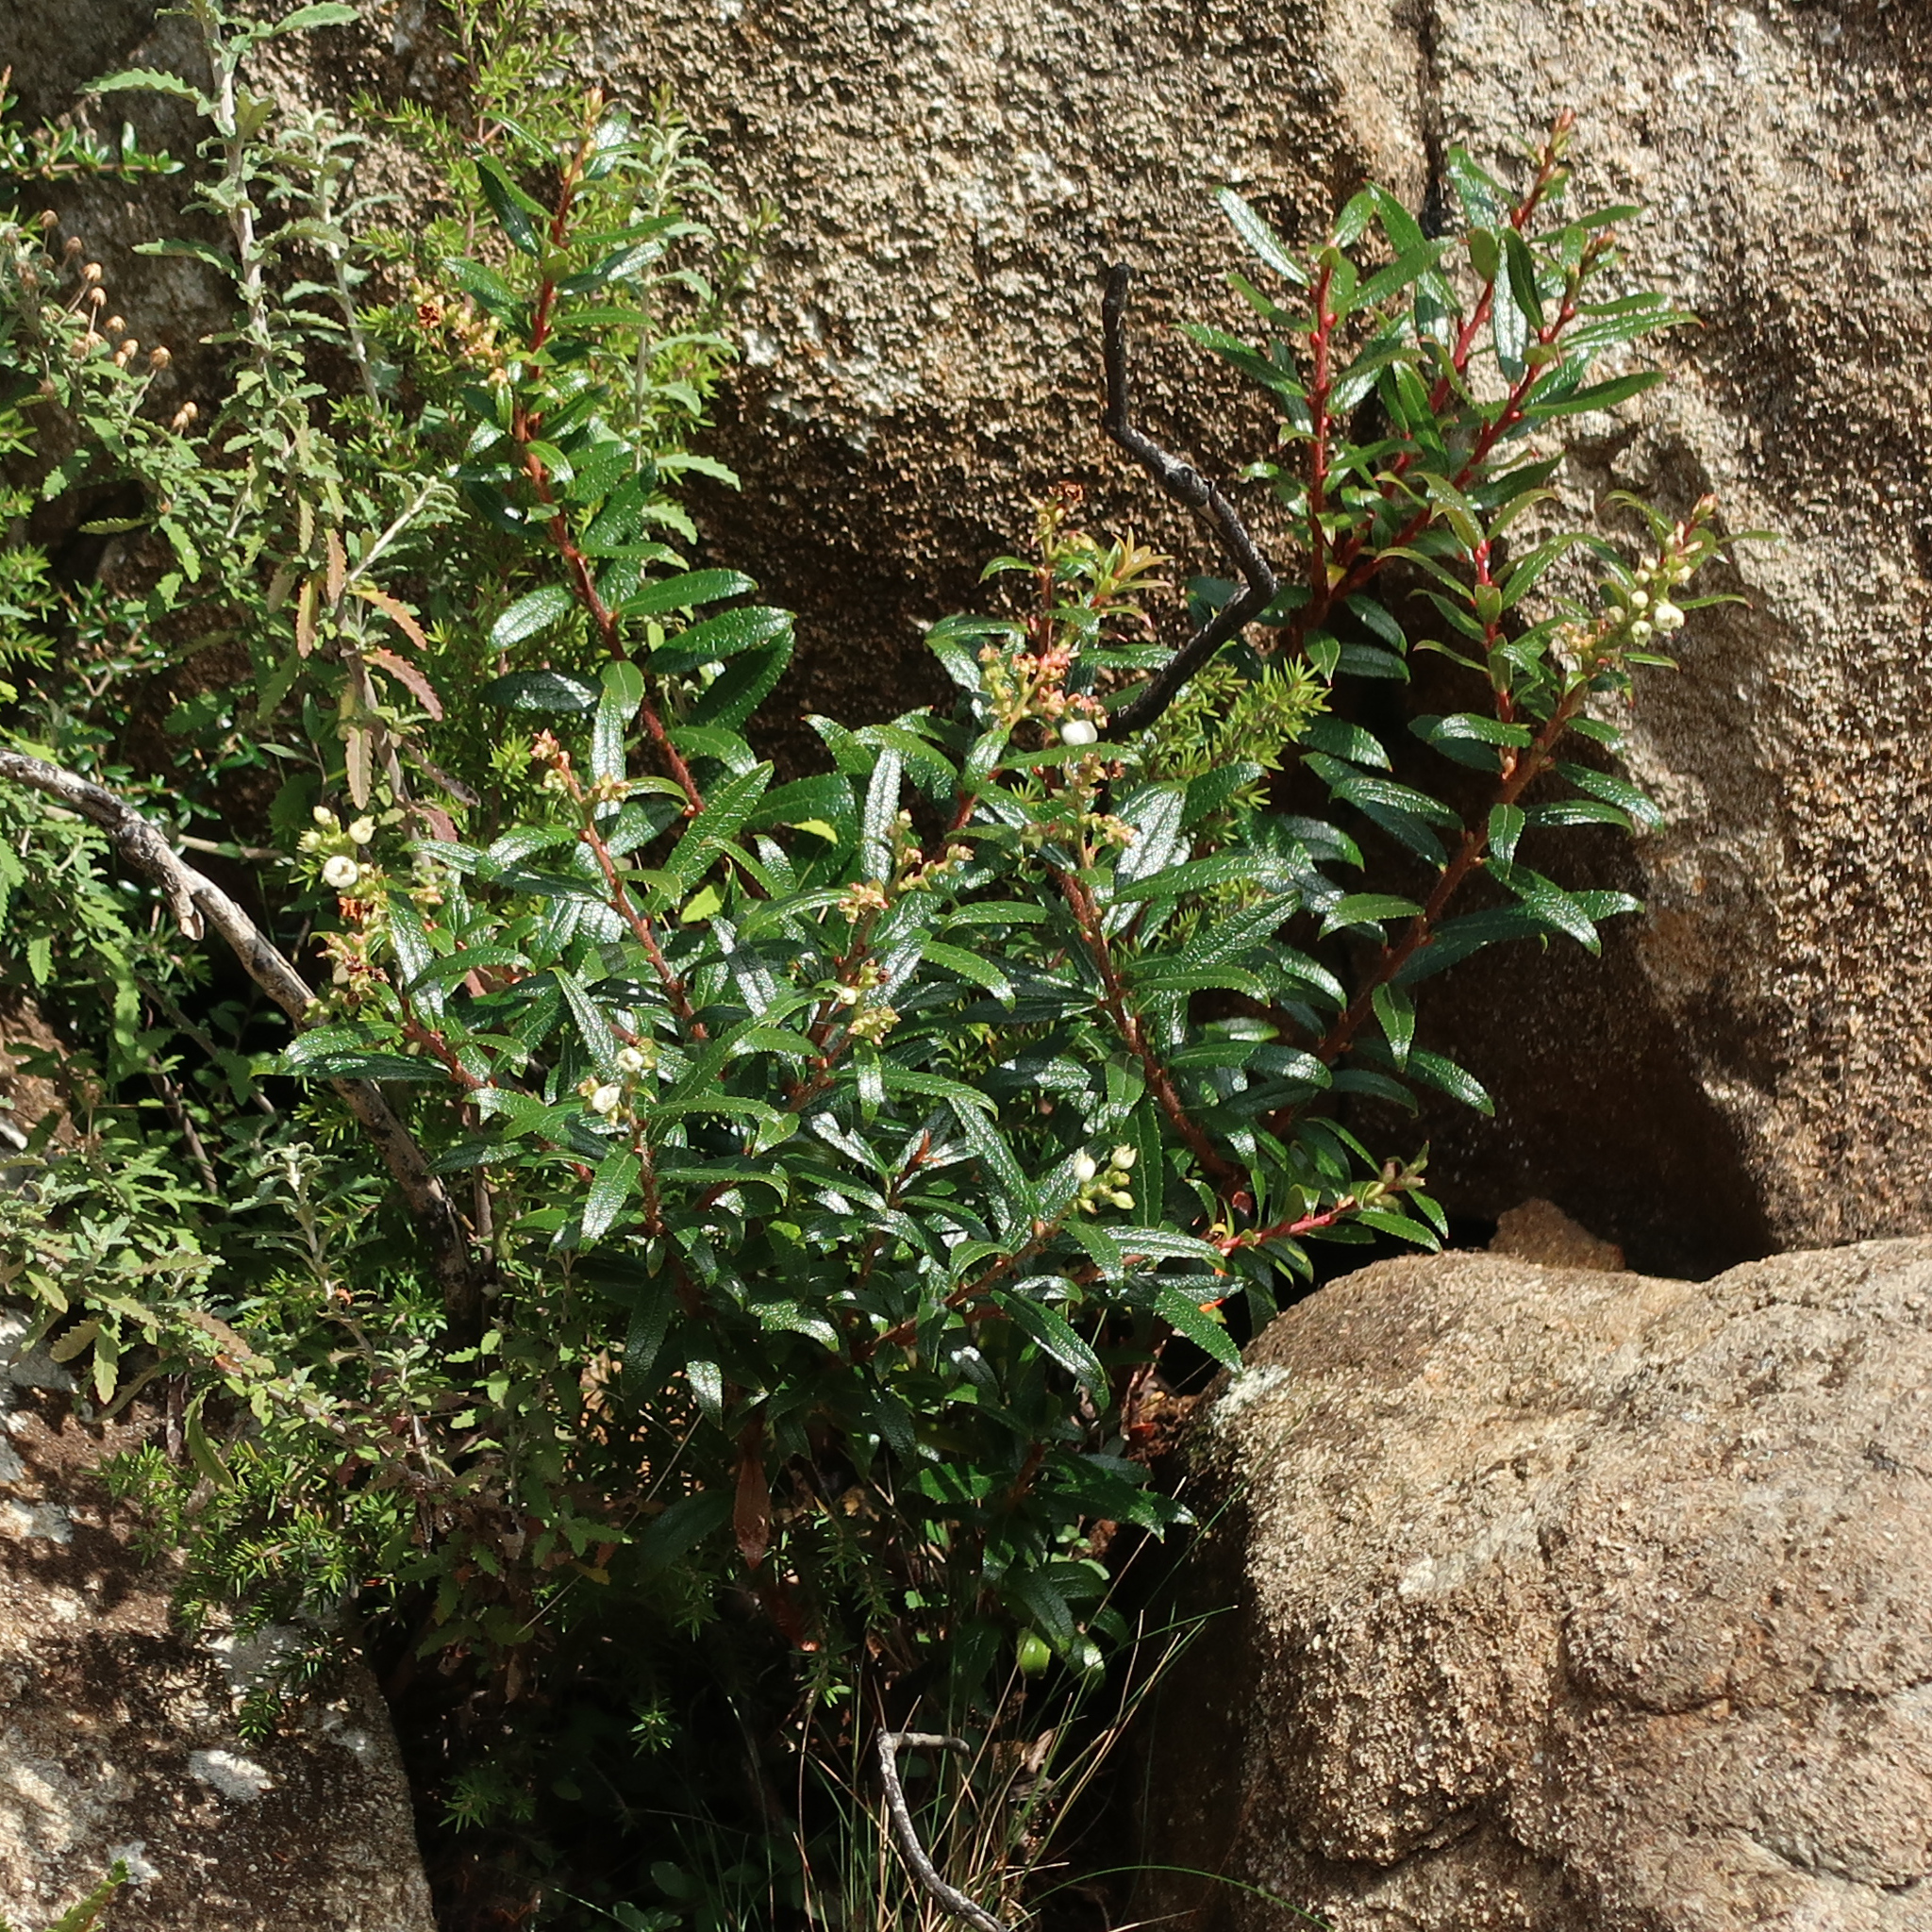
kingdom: Plantae
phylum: Tracheophyta
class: Magnoliopsida
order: Ericales
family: Ericaceae
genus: Gaultheria
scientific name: Gaultheria hispida
